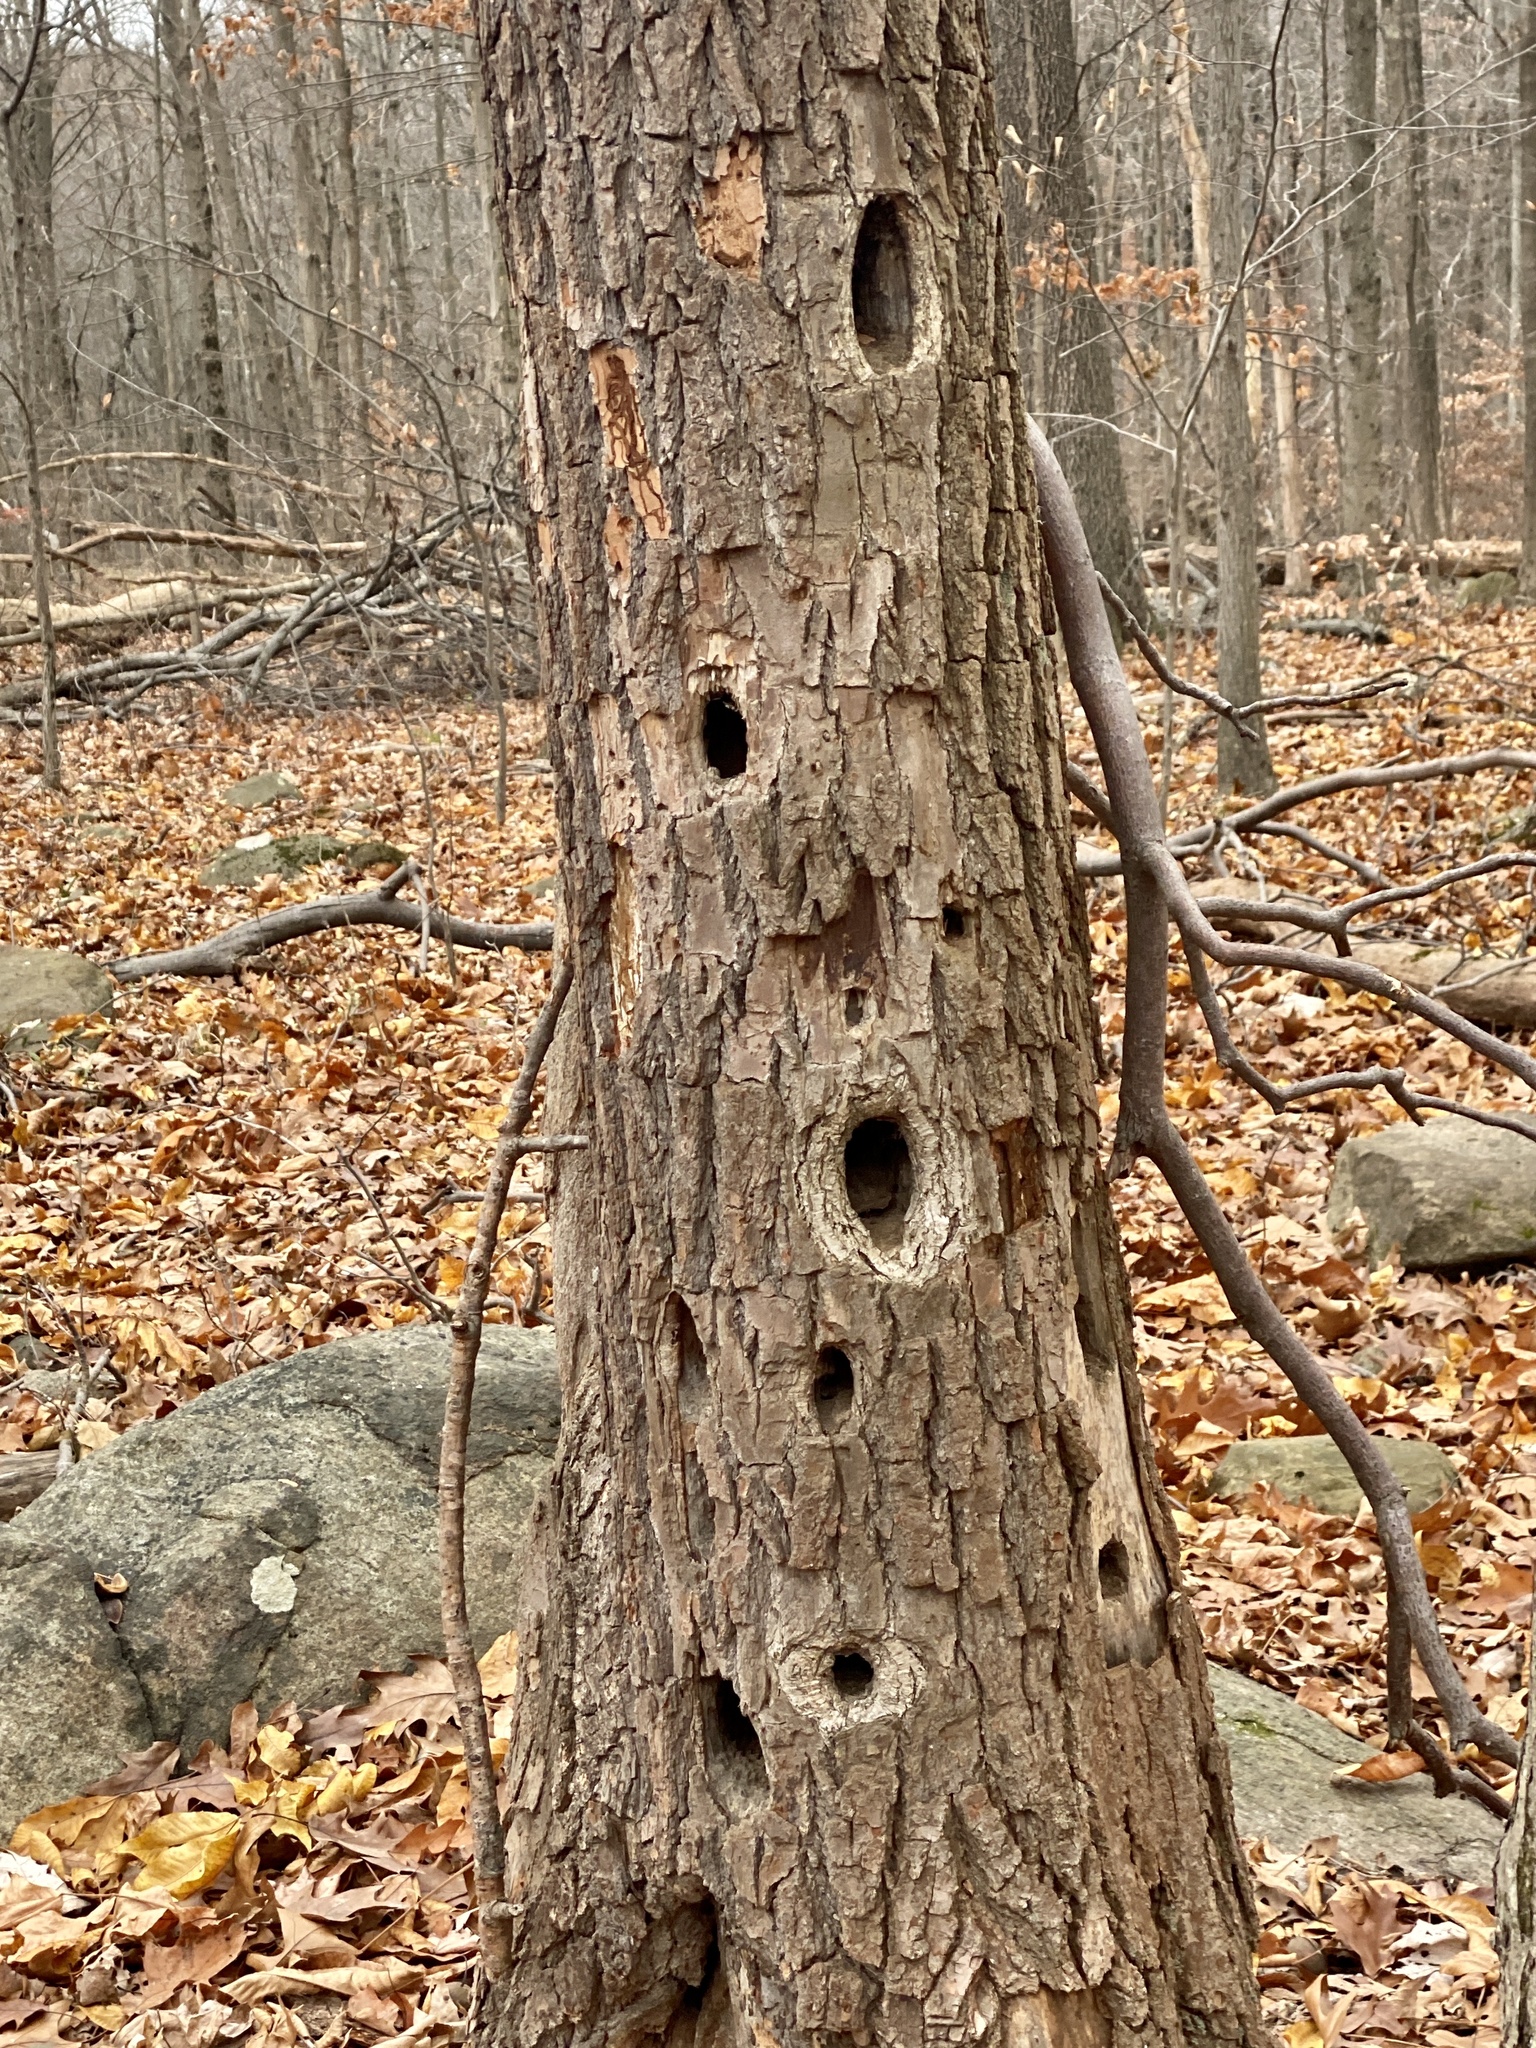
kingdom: Animalia
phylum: Chordata
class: Aves
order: Piciformes
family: Picidae
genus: Dryocopus
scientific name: Dryocopus pileatus
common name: Pileated woodpecker
